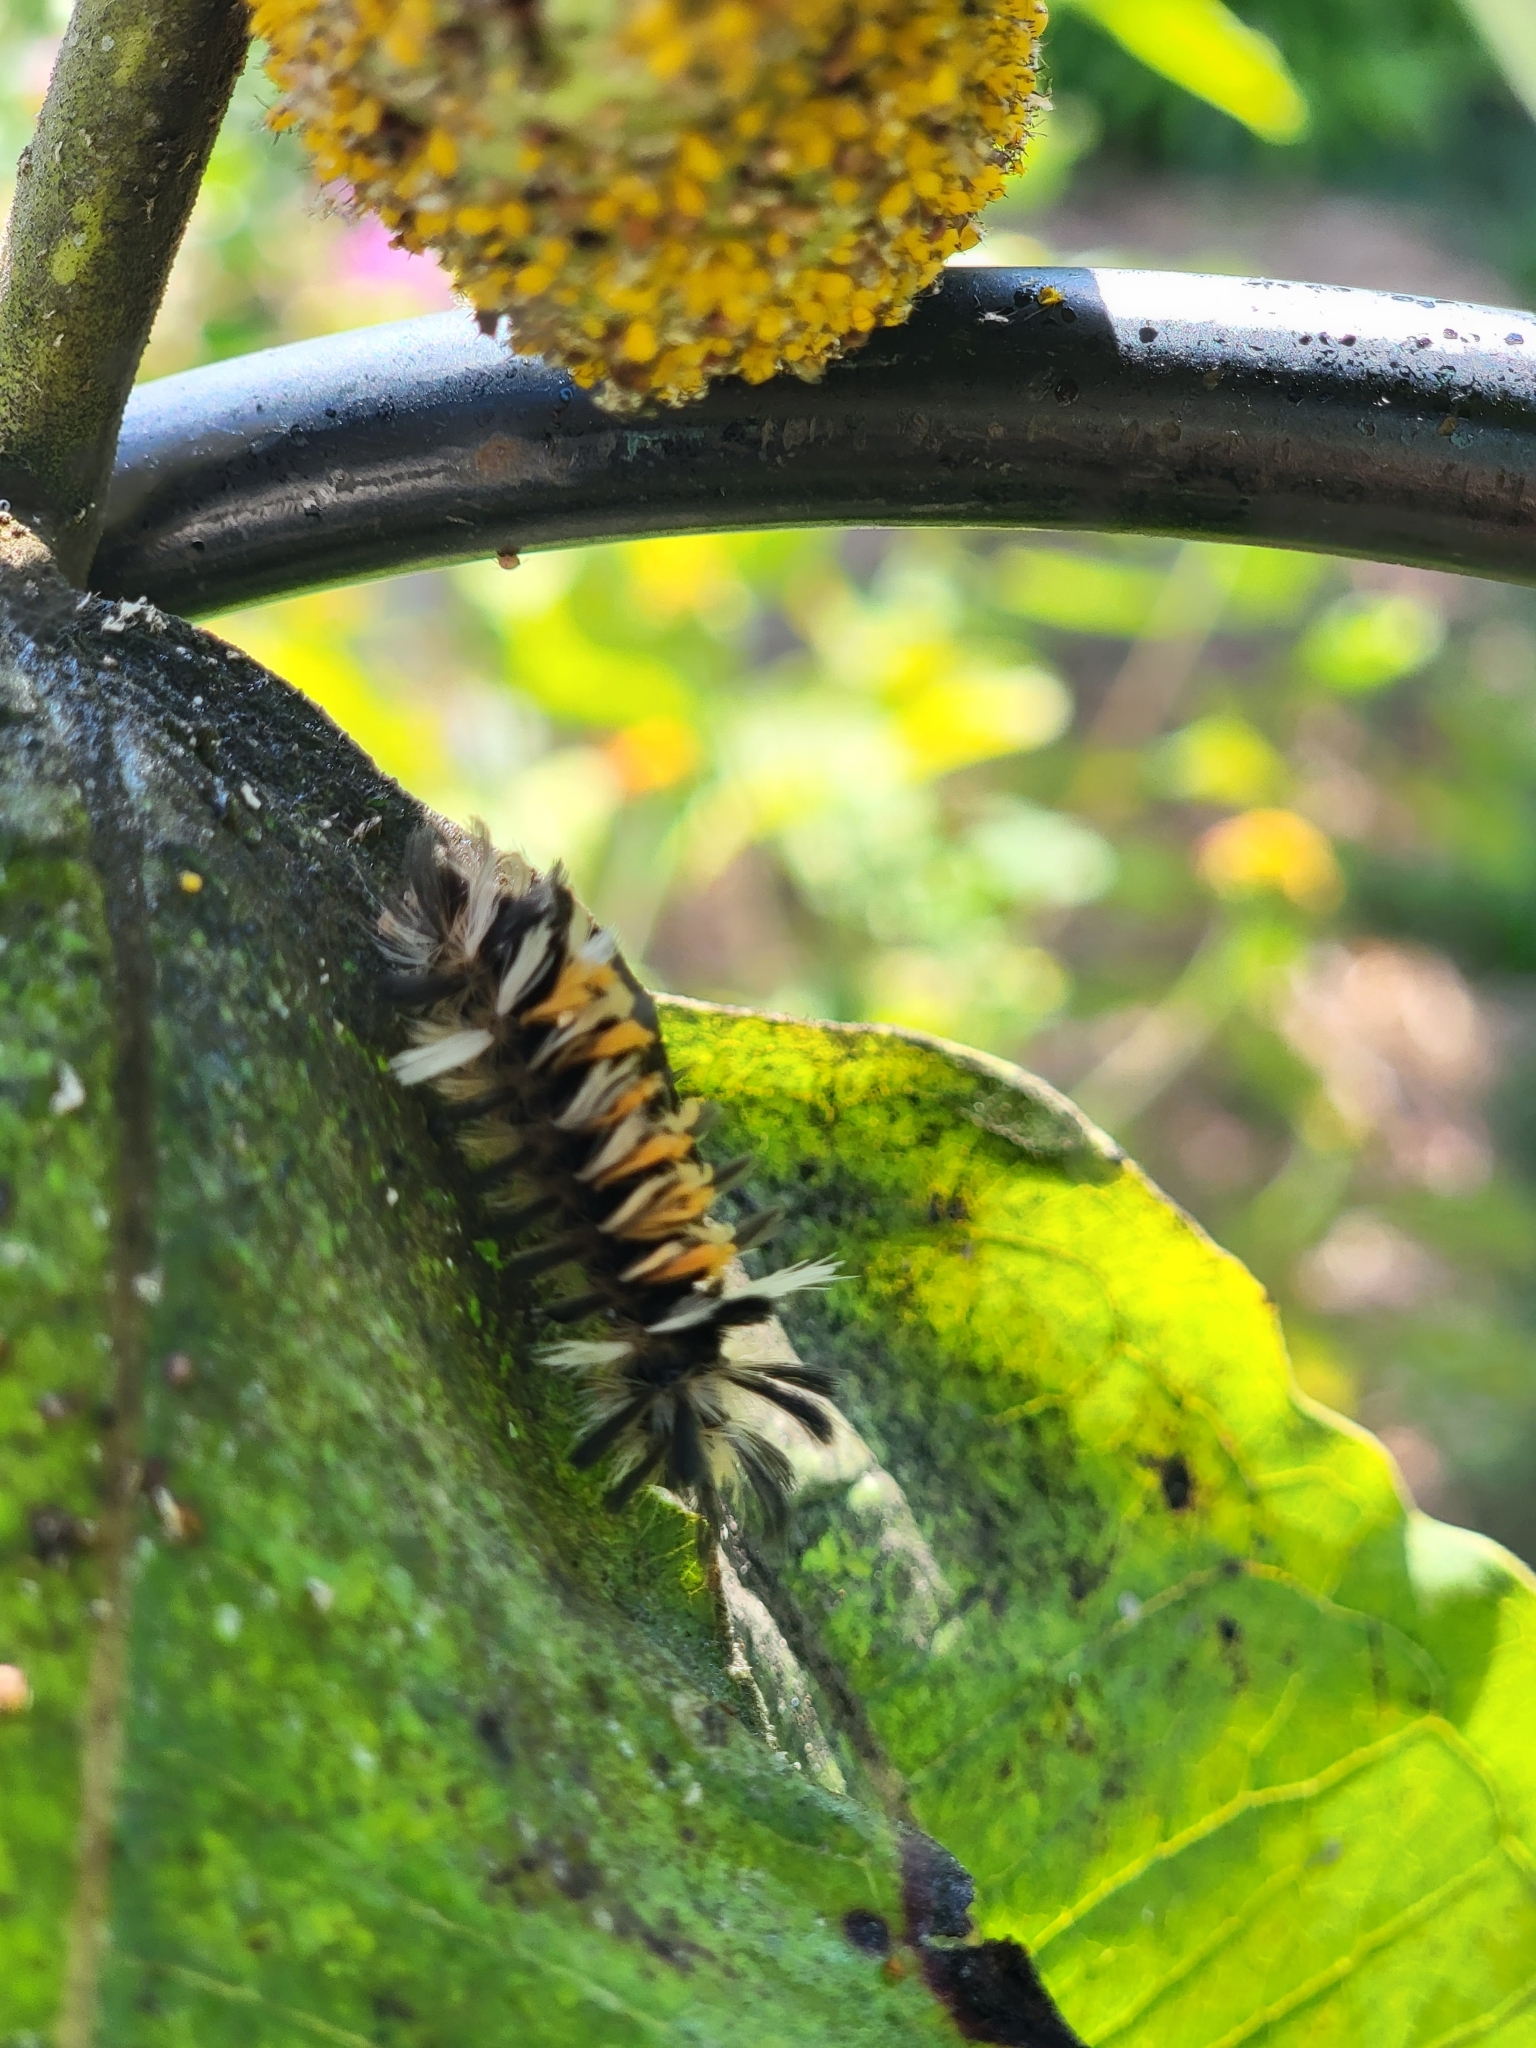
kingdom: Animalia
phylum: Arthropoda
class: Insecta
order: Lepidoptera
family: Erebidae
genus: Euchaetes
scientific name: Euchaetes egle
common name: Milkweed tussock moth
